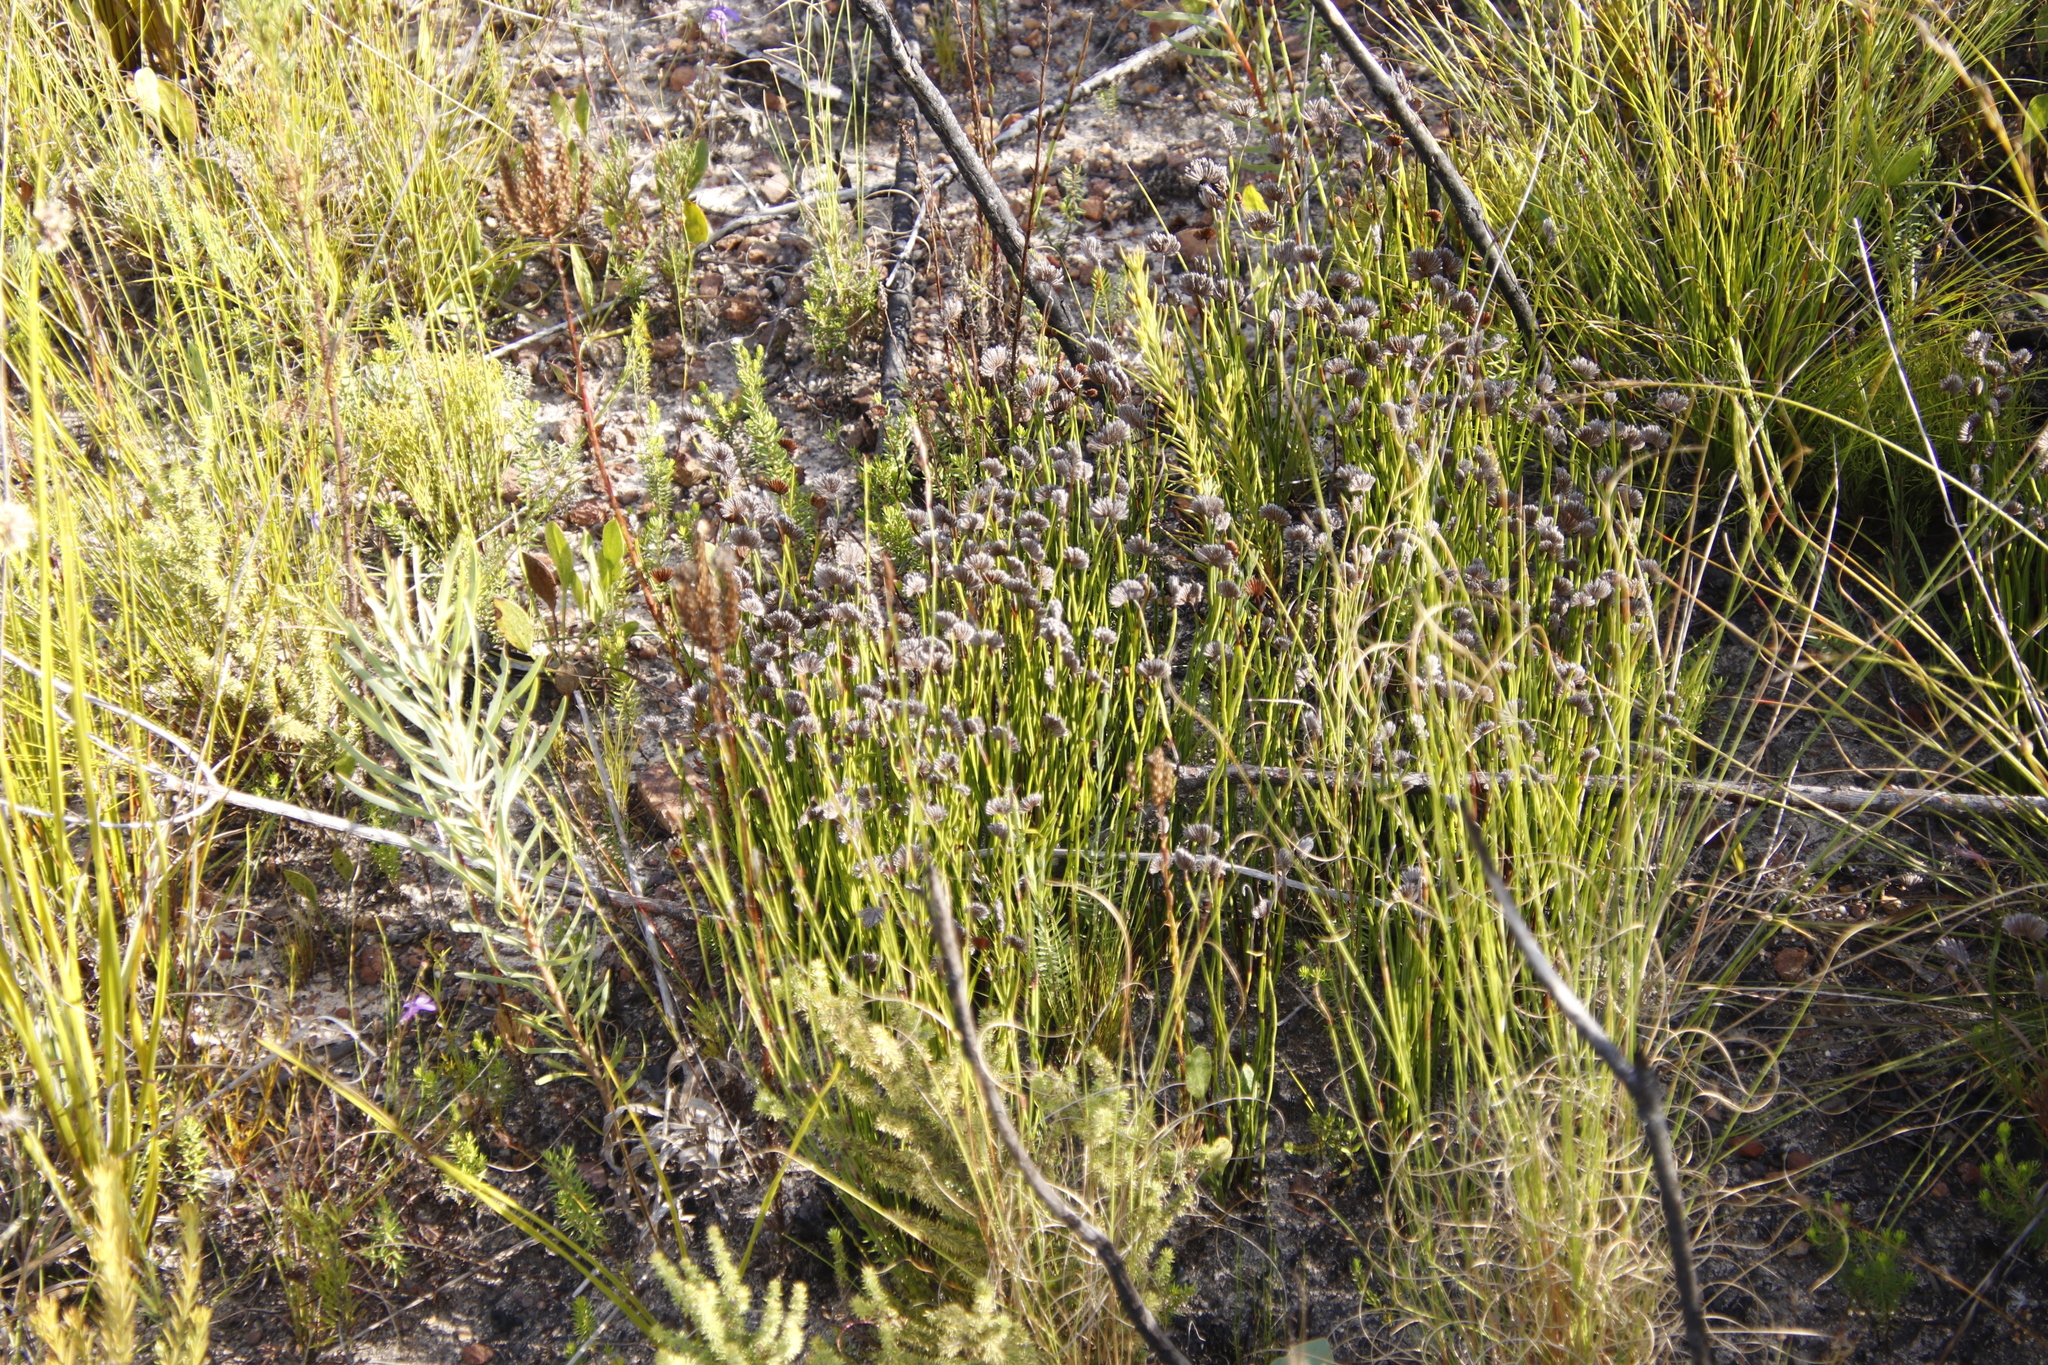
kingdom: Plantae
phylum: Tracheophyta
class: Polypodiopsida
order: Schizaeales
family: Schizaeaceae
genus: Schizaea
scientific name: Schizaea pectinata
